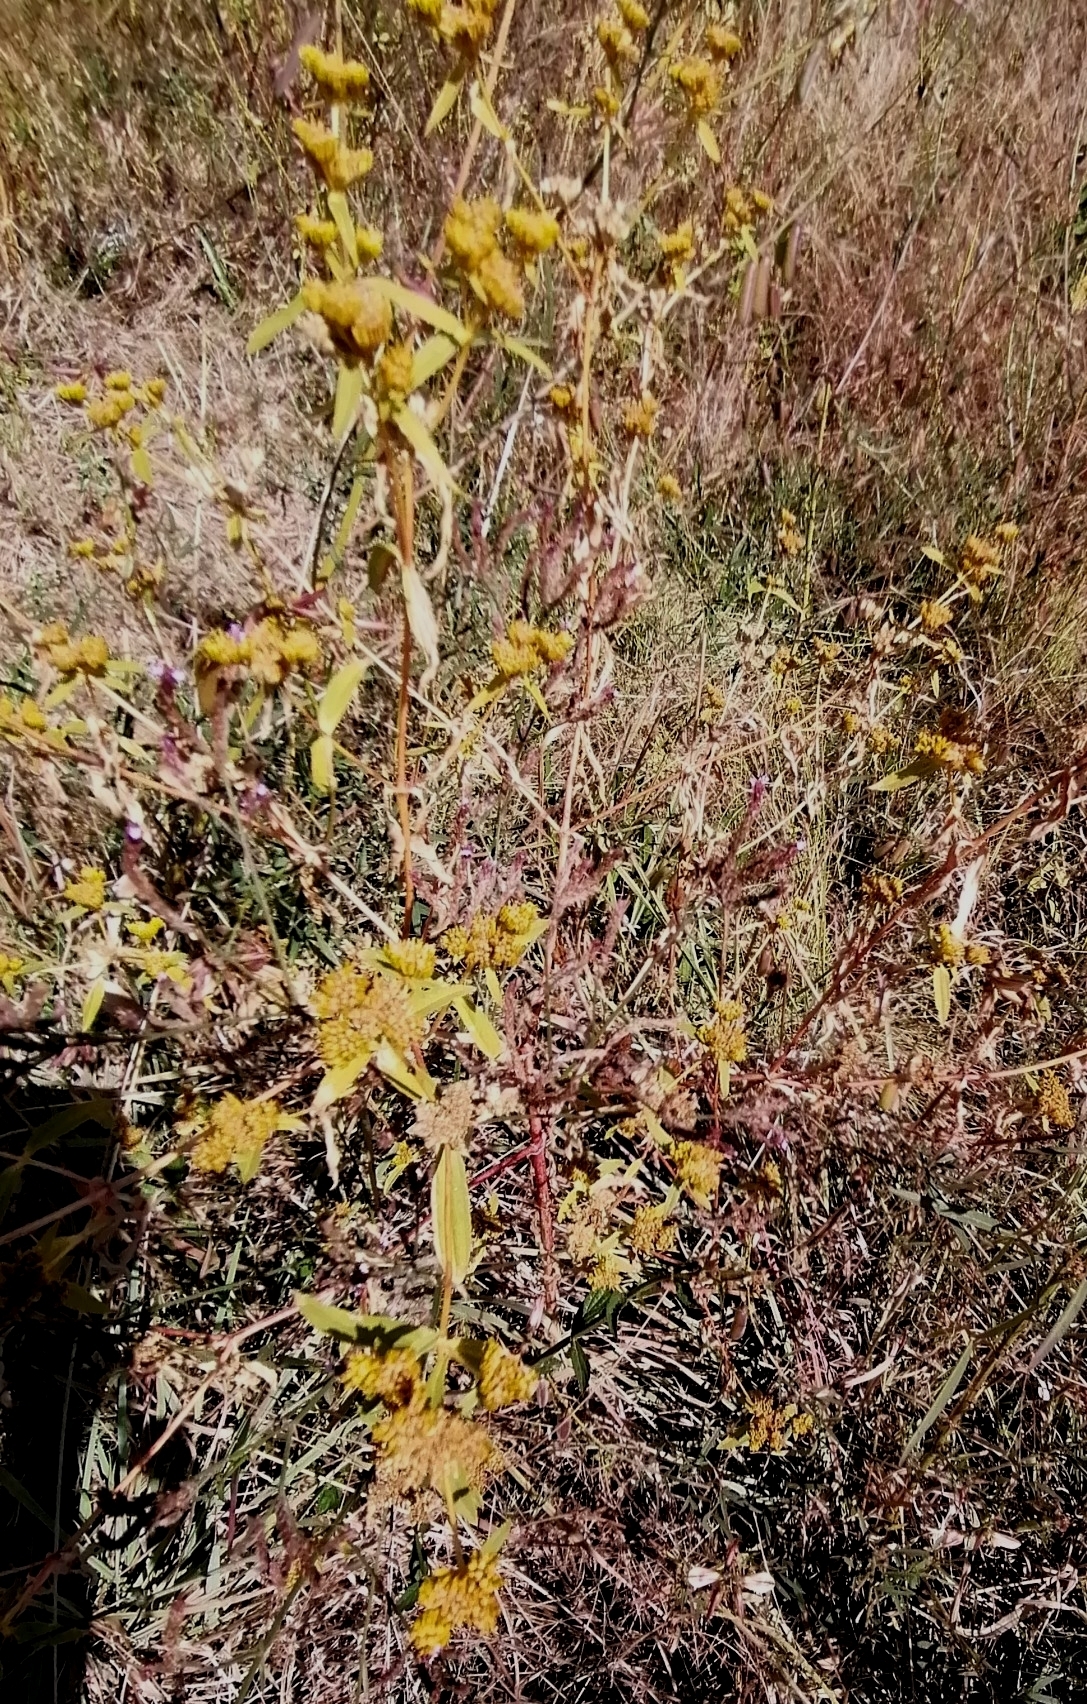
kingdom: Plantae
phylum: Tracheophyta
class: Magnoliopsida
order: Asterales
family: Asteraceae
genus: Flaveria
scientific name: Flaveria bidentis
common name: Coastal plain yellowtops
